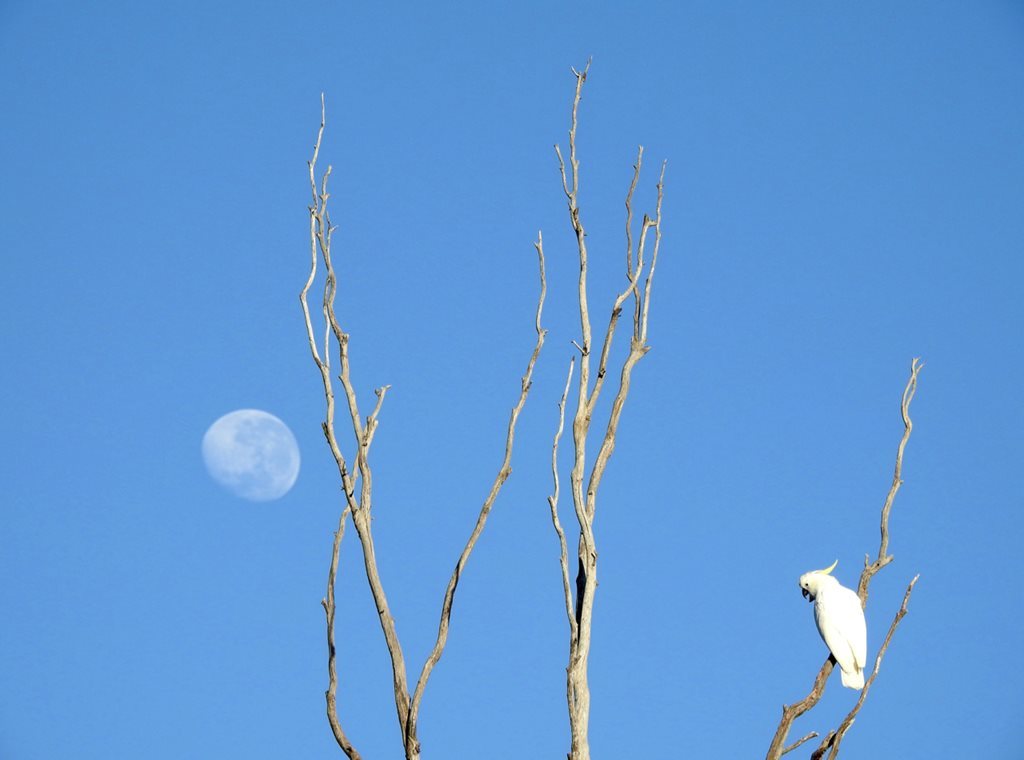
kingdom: Animalia
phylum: Chordata
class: Aves
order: Psittaciformes
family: Psittacidae
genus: Cacatua
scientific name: Cacatua galerita
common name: Sulphur-crested cockatoo
